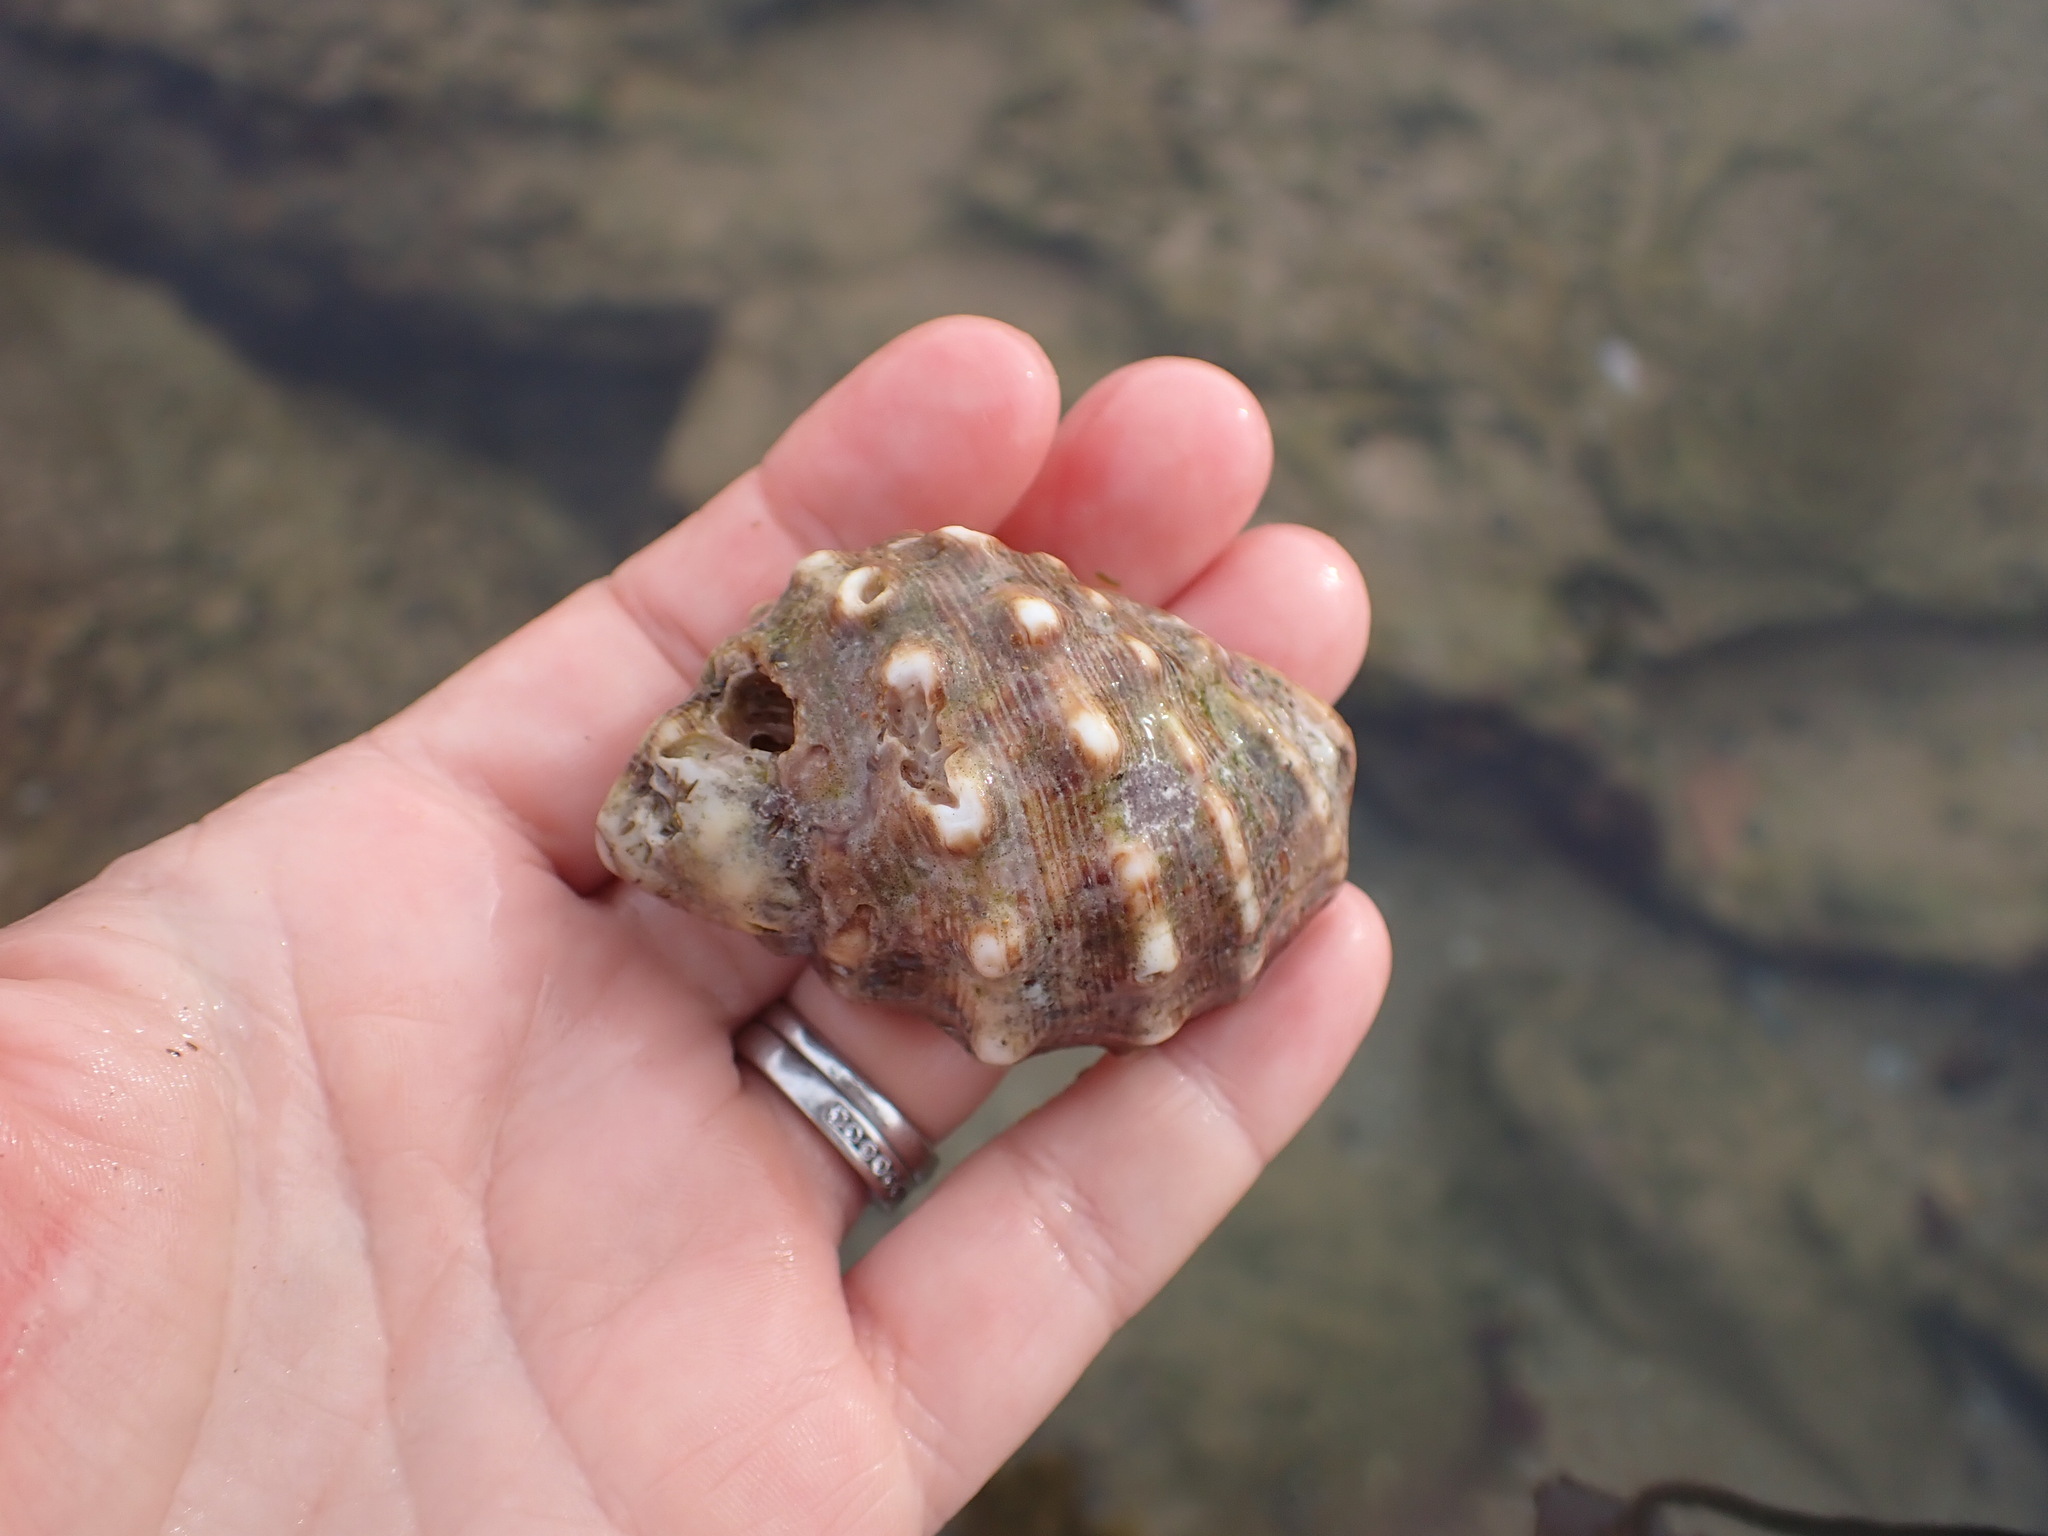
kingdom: Animalia
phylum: Mollusca
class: Gastropoda
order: Neogastropoda
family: Muricidae
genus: Stramonita
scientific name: Stramonita haemastoma
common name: Florida dog winkle
